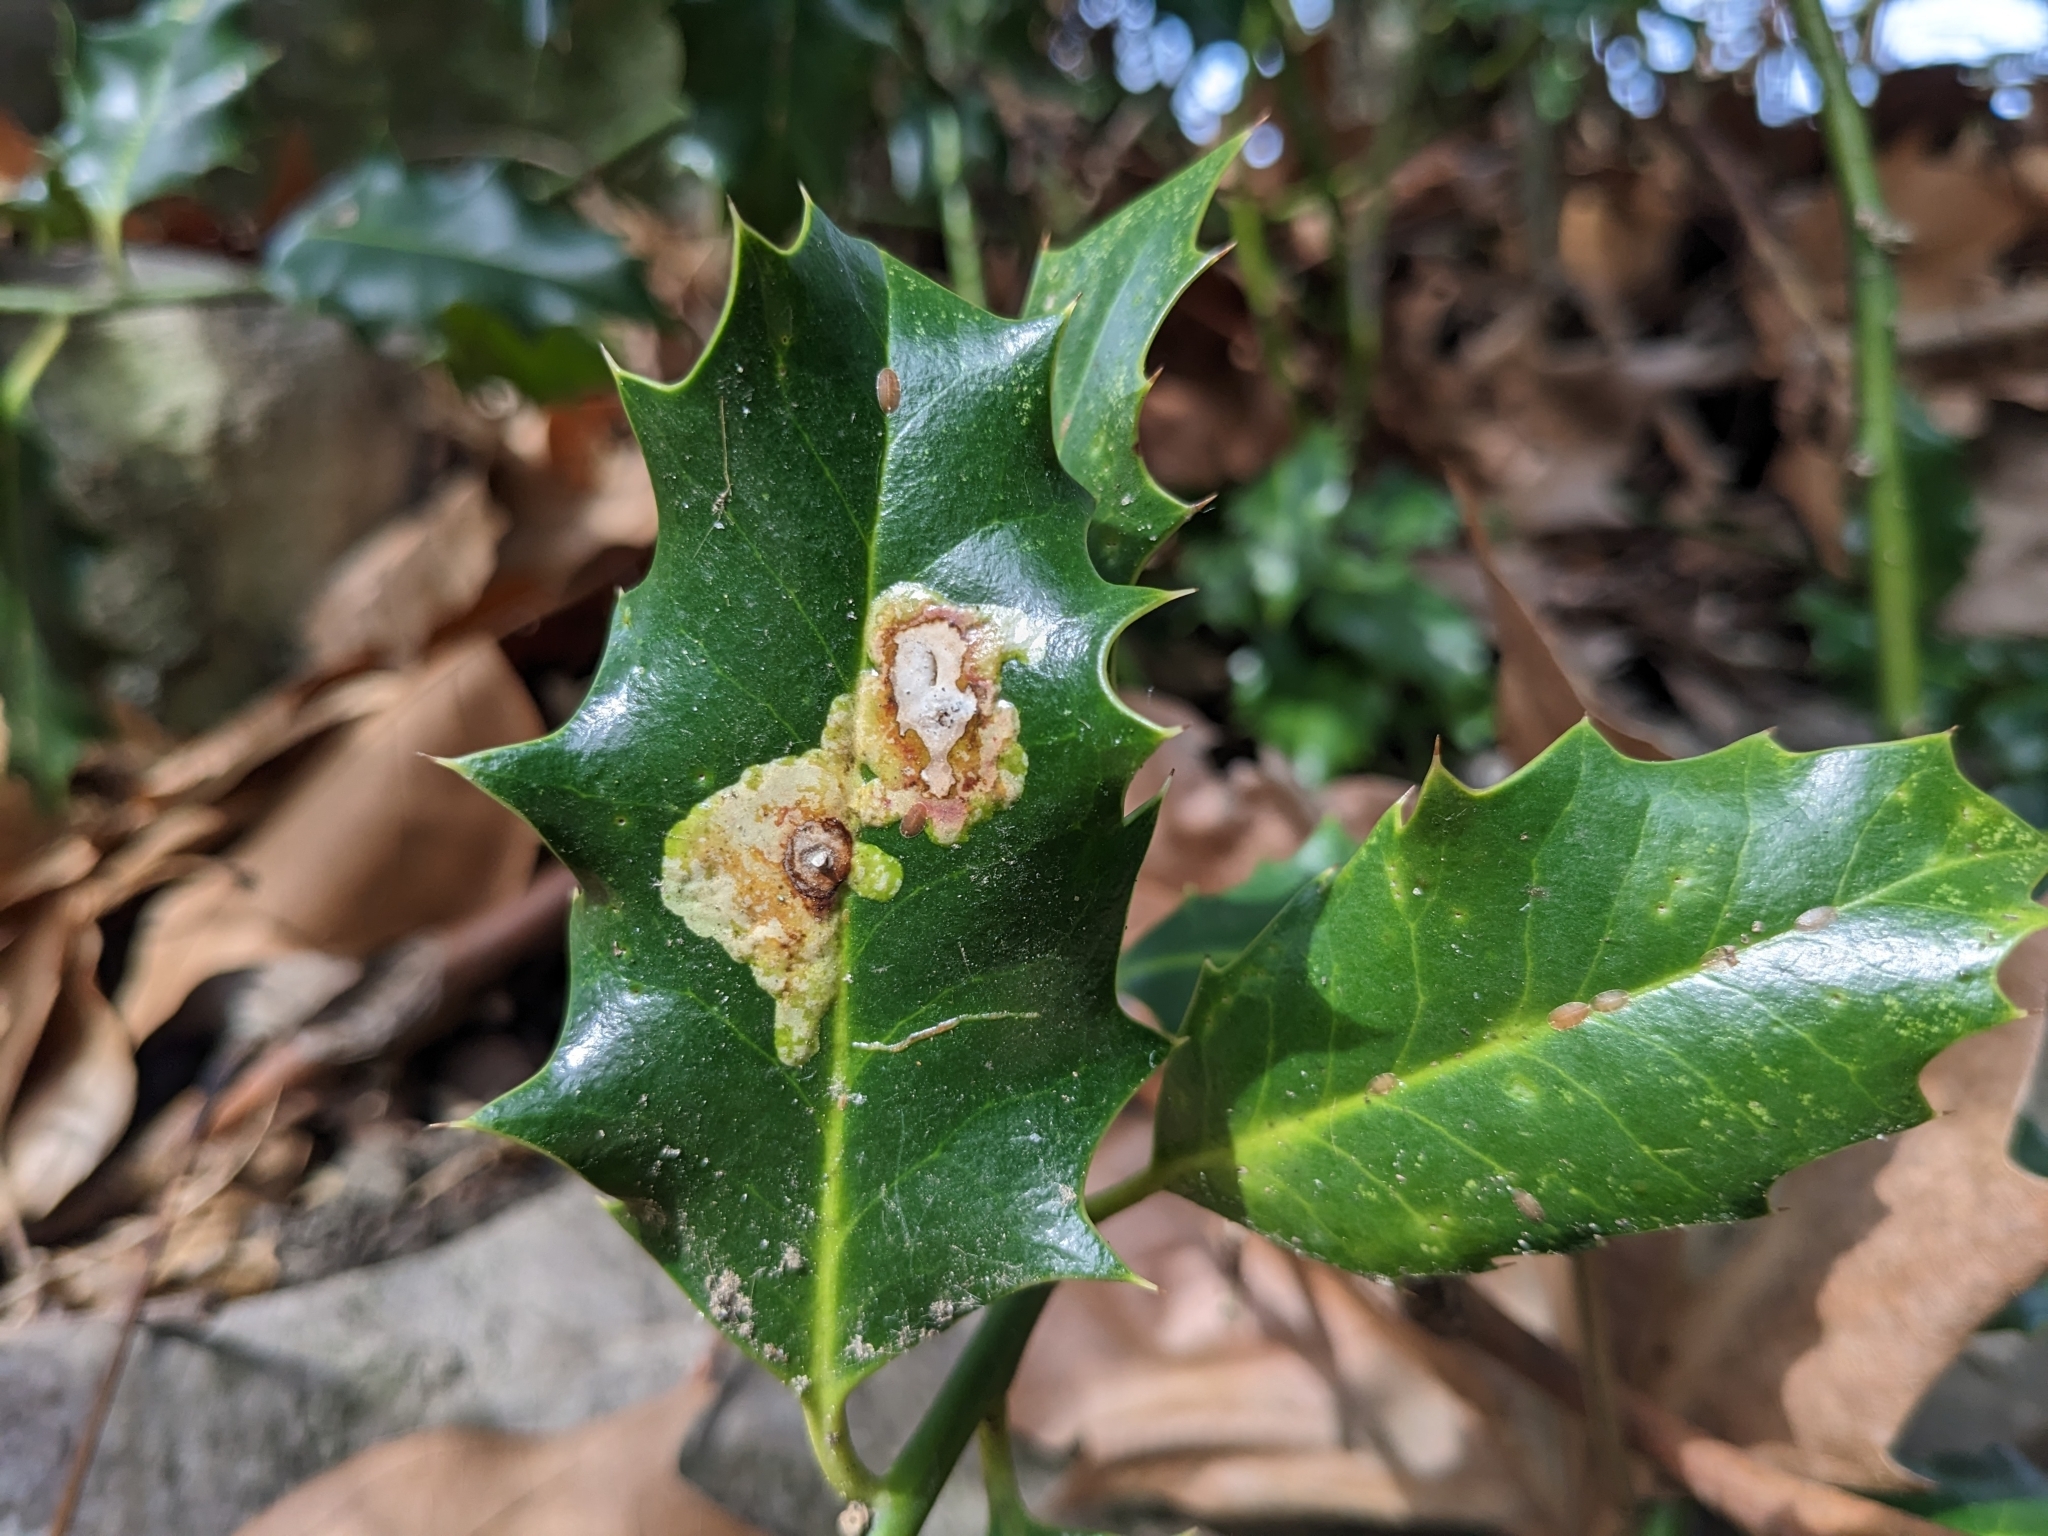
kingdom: Animalia
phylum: Arthropoda
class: Insecta
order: Diptera
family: Agromyzidae
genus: Phytomyza
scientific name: Phytomyza ilicis
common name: Holly leafminer
